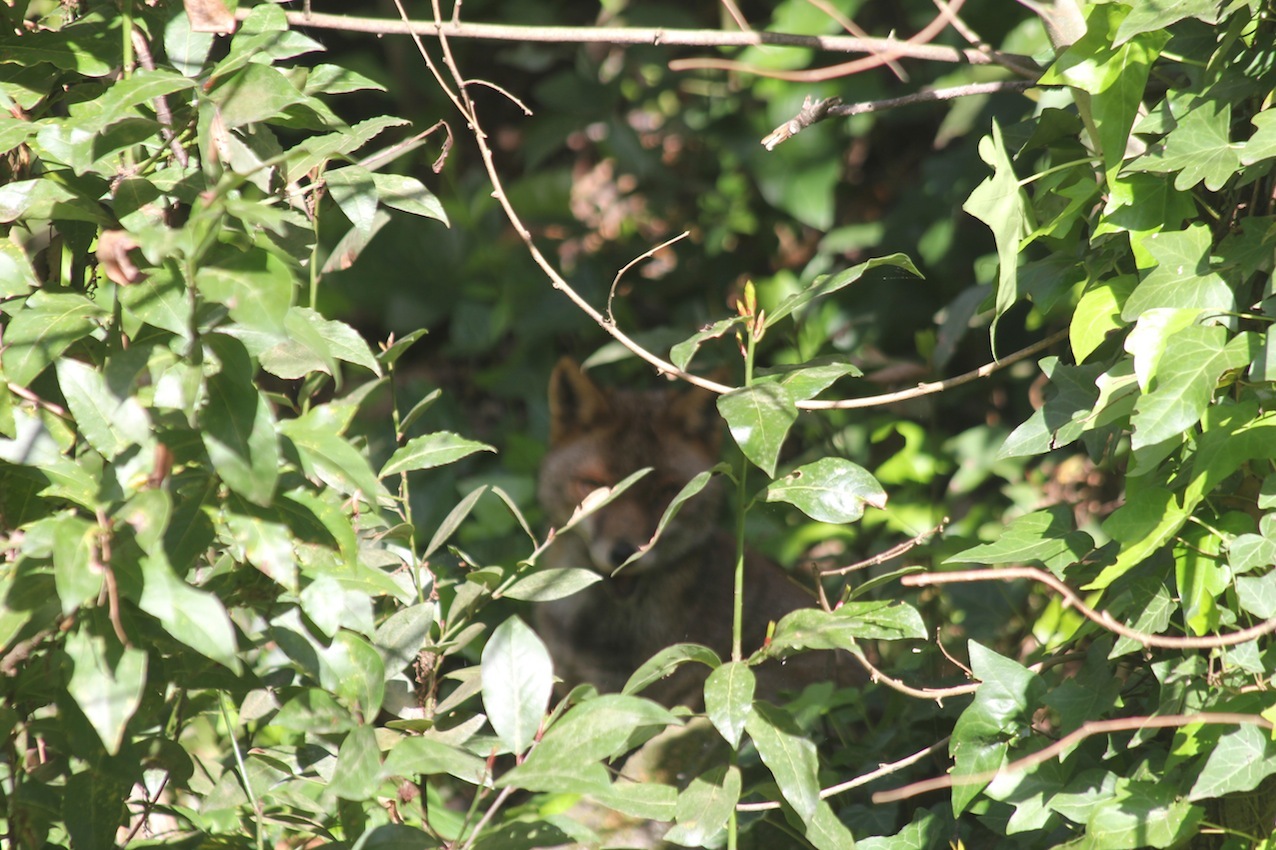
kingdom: Animalia
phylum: Chordata
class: Mammalia
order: Carnivora
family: Canidae
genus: Vulpes
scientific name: Vulpes vulpes
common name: Red fox
